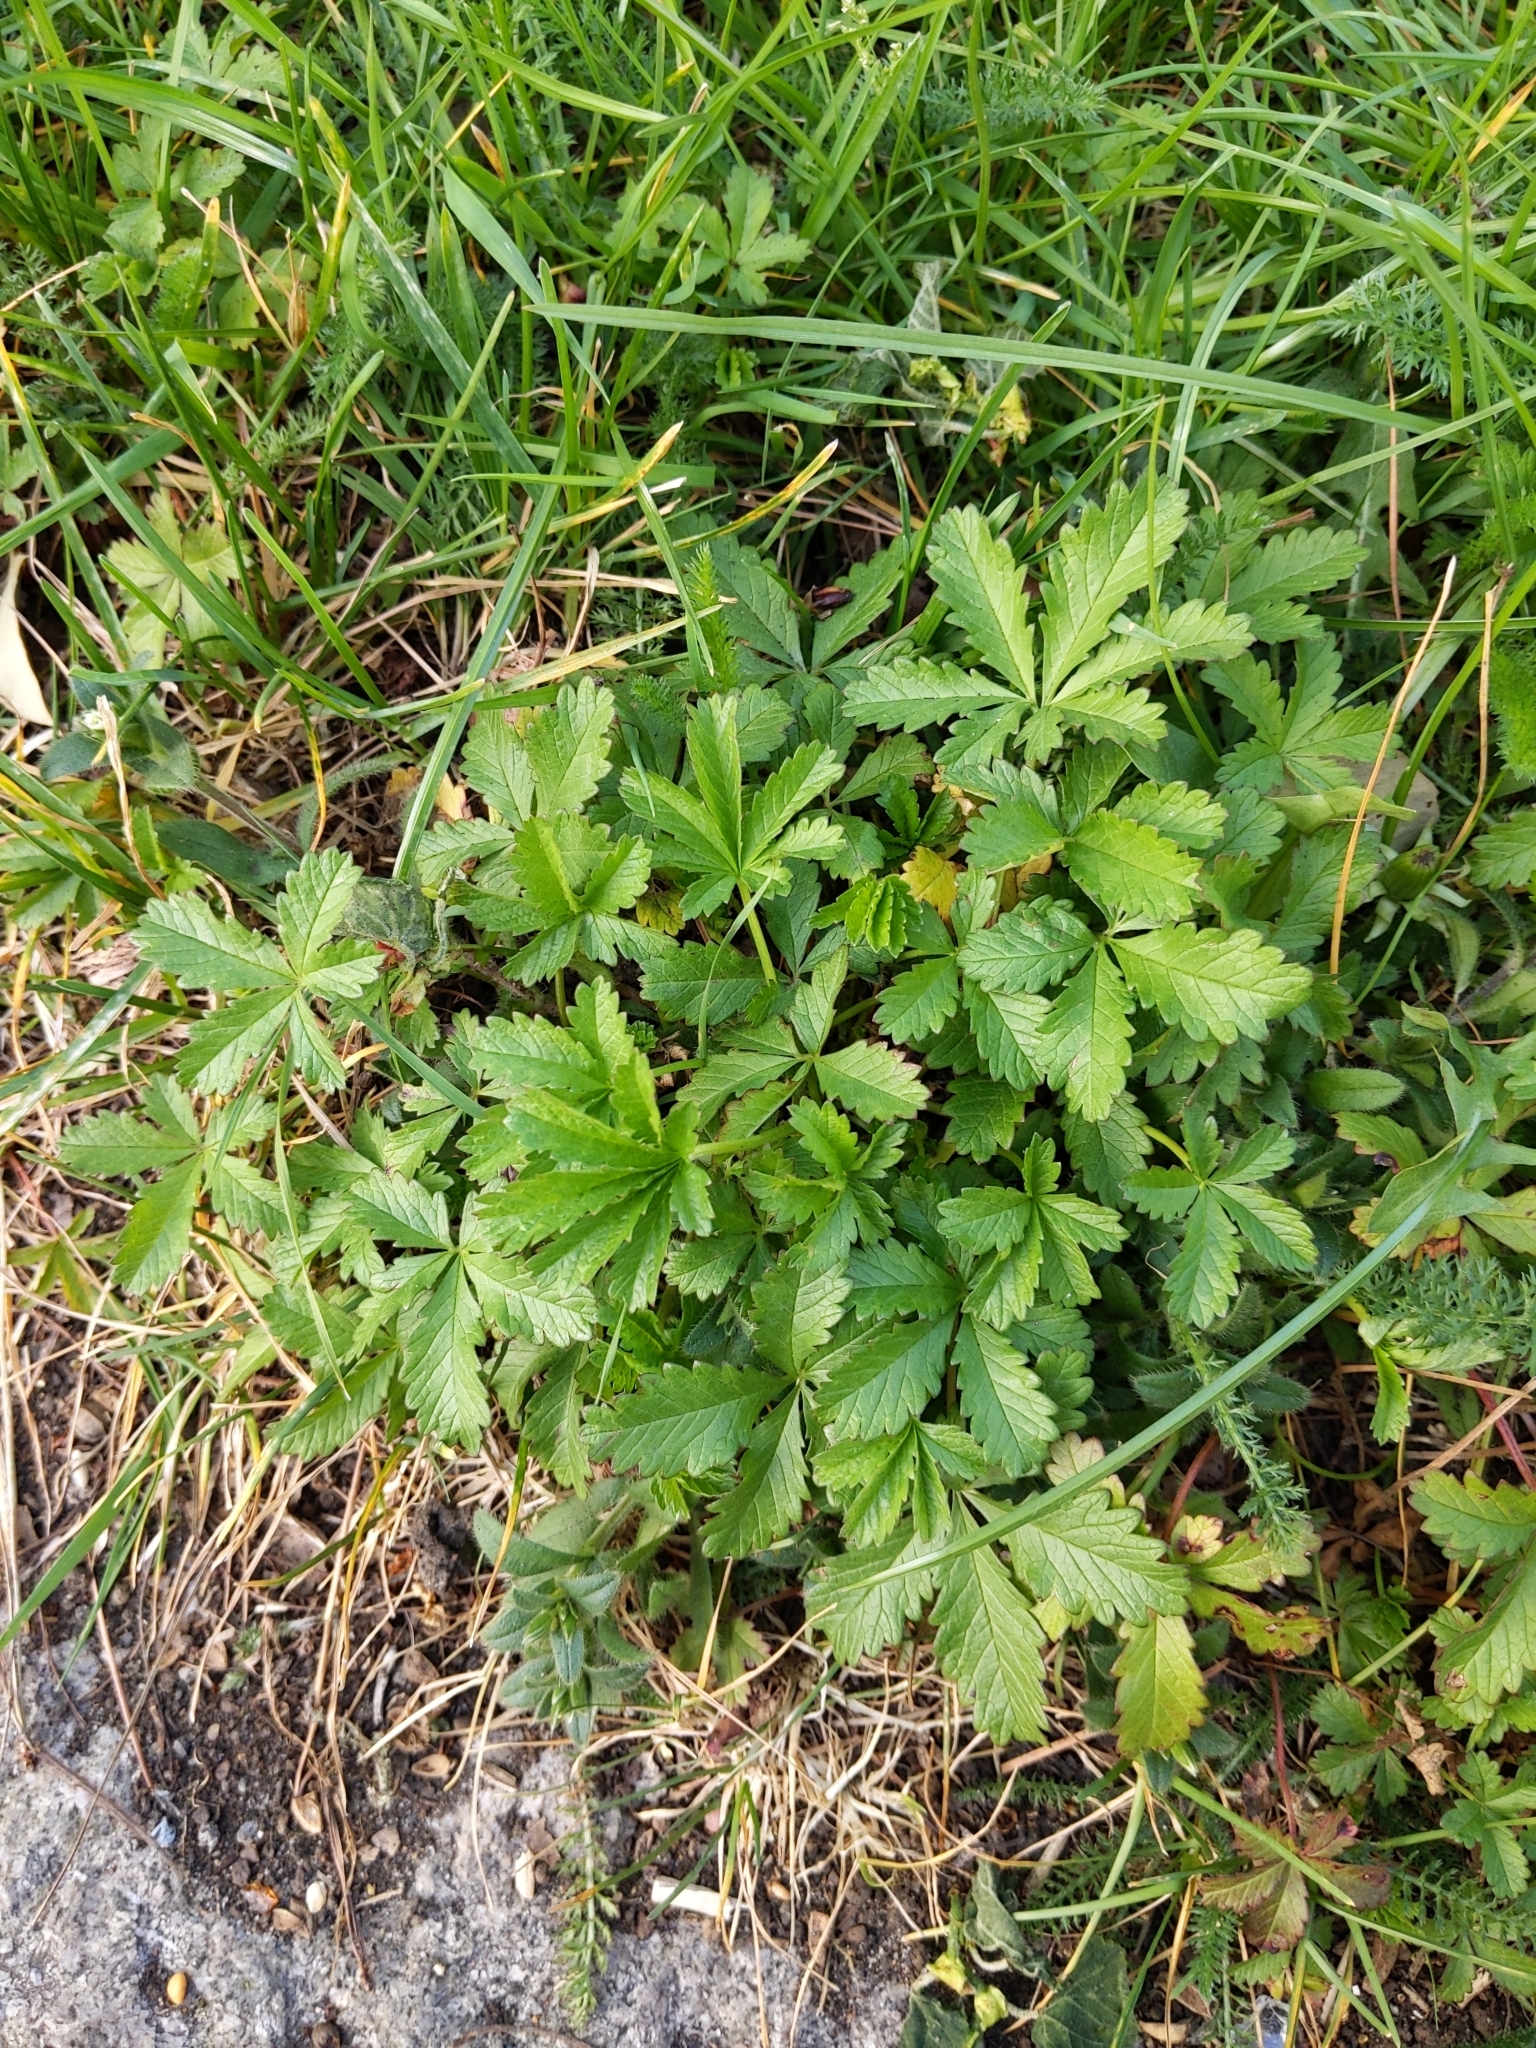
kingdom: Plantae
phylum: Tracheophyta
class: Magnoliopsida
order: Rosales
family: Rosaceae
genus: Potentilla
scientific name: Potentilla reptans
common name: Creeping cinquefoil
